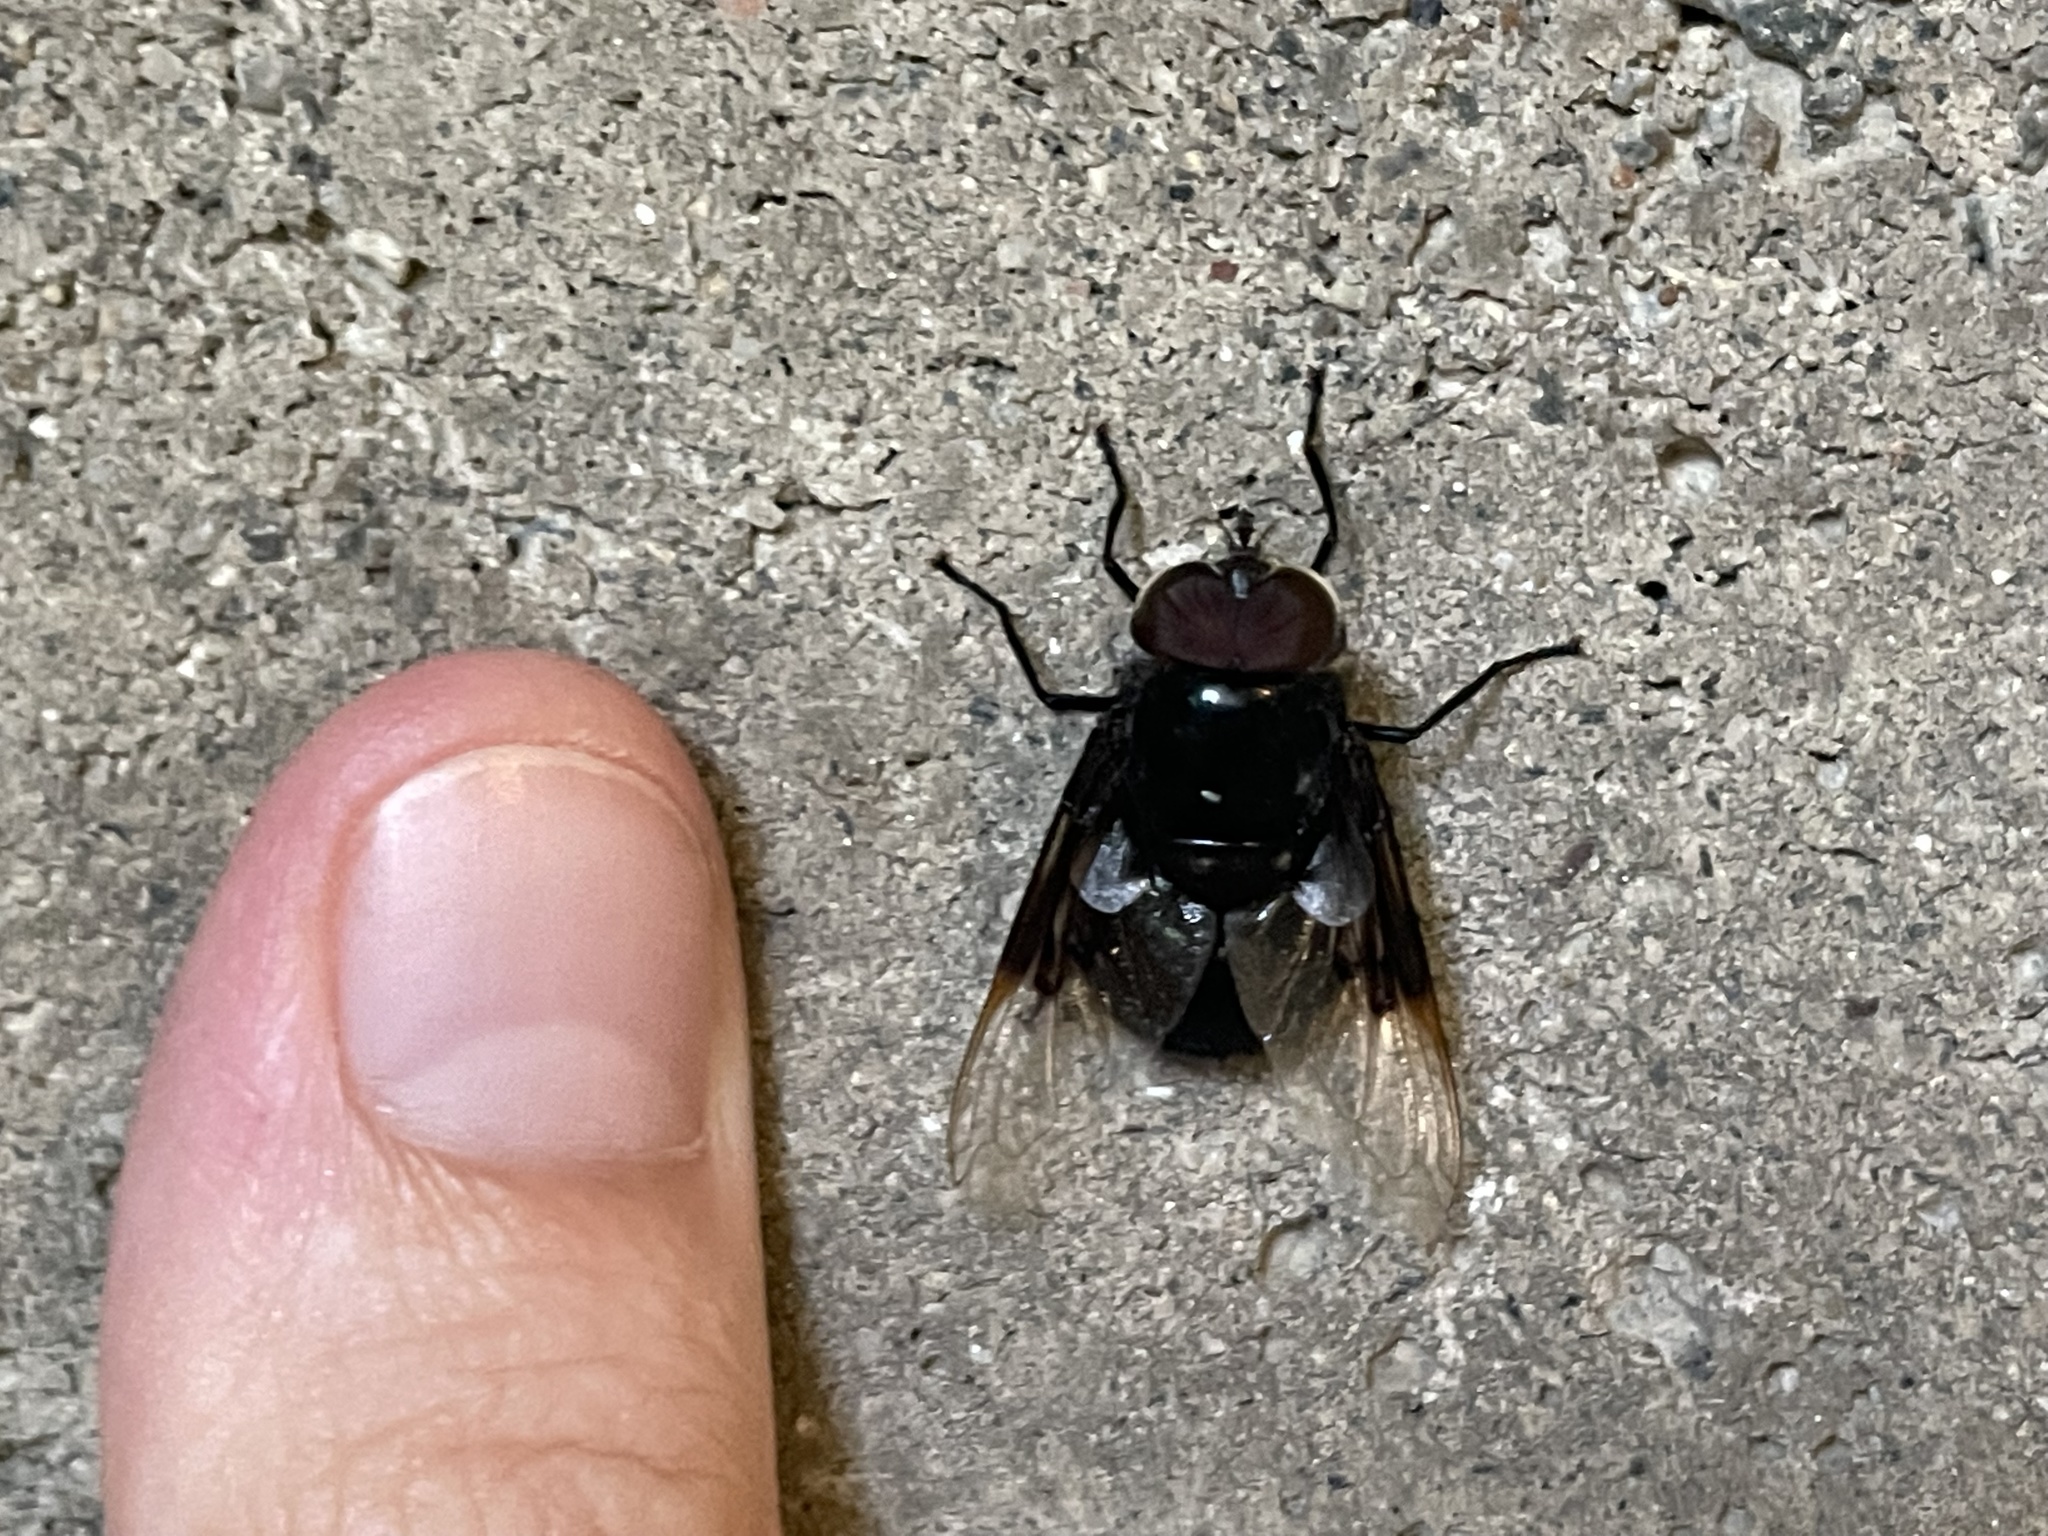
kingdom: Animalia
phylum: Arthropoda
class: Insecta
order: Diptera
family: Syrphidae
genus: Copestylum
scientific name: Copestylum mexicanum
